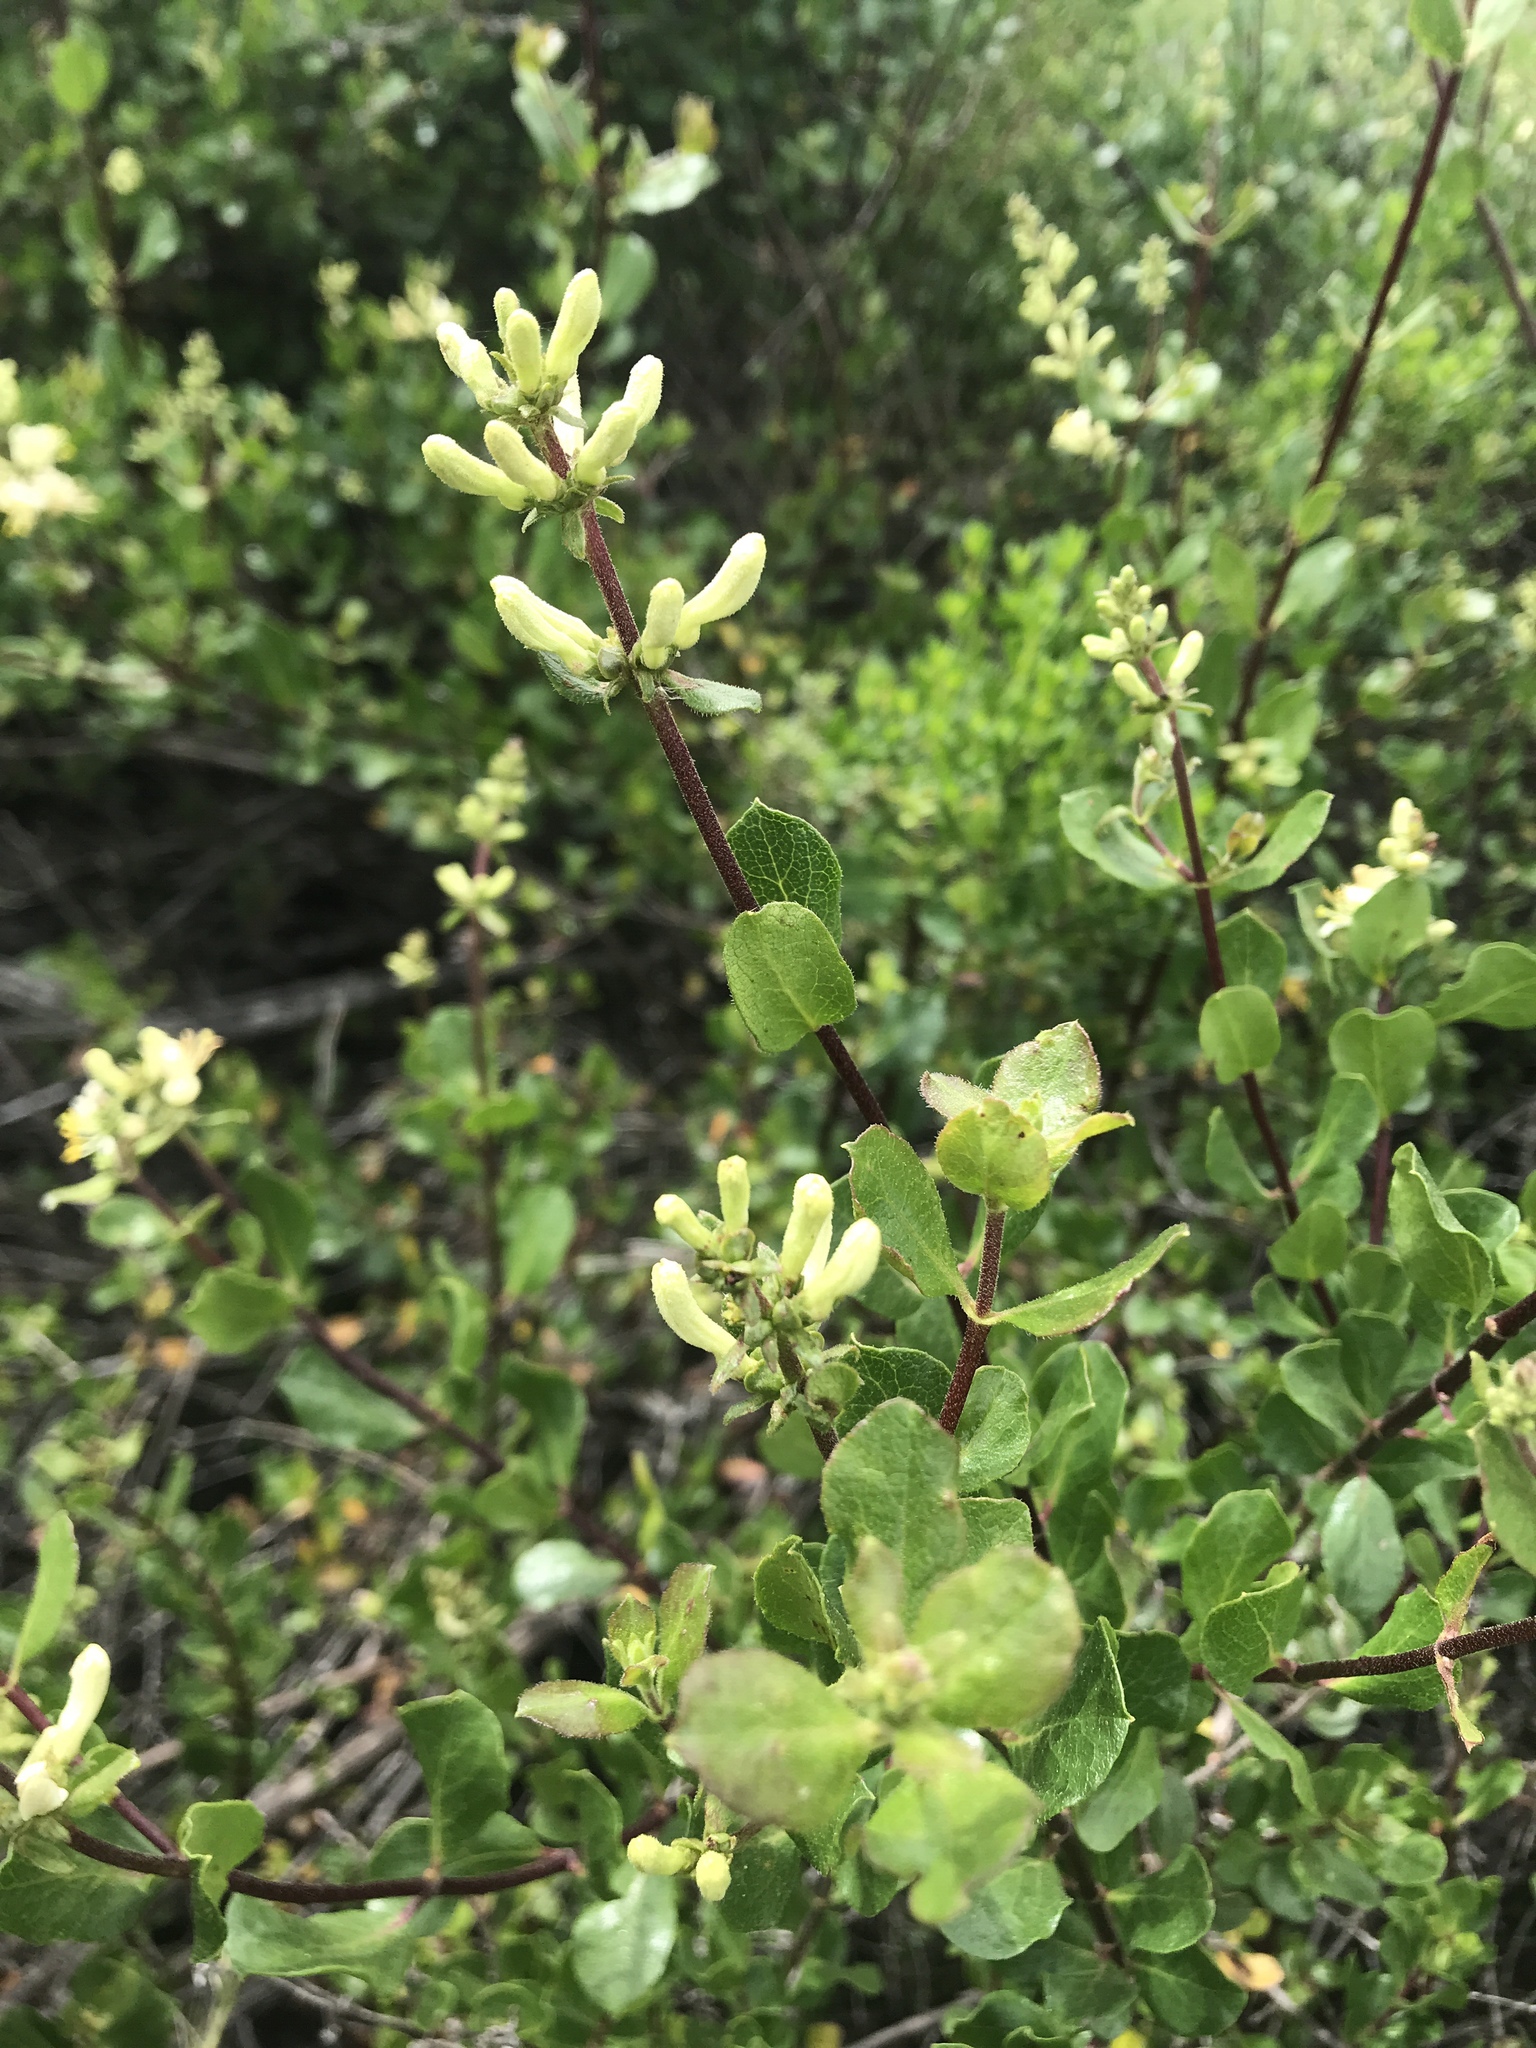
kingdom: Plantae
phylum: Tracheophyta
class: Magnoliopsida
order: Dipsacales
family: Caprifoliaceae
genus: Lonicera
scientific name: Lonicera subspicata
